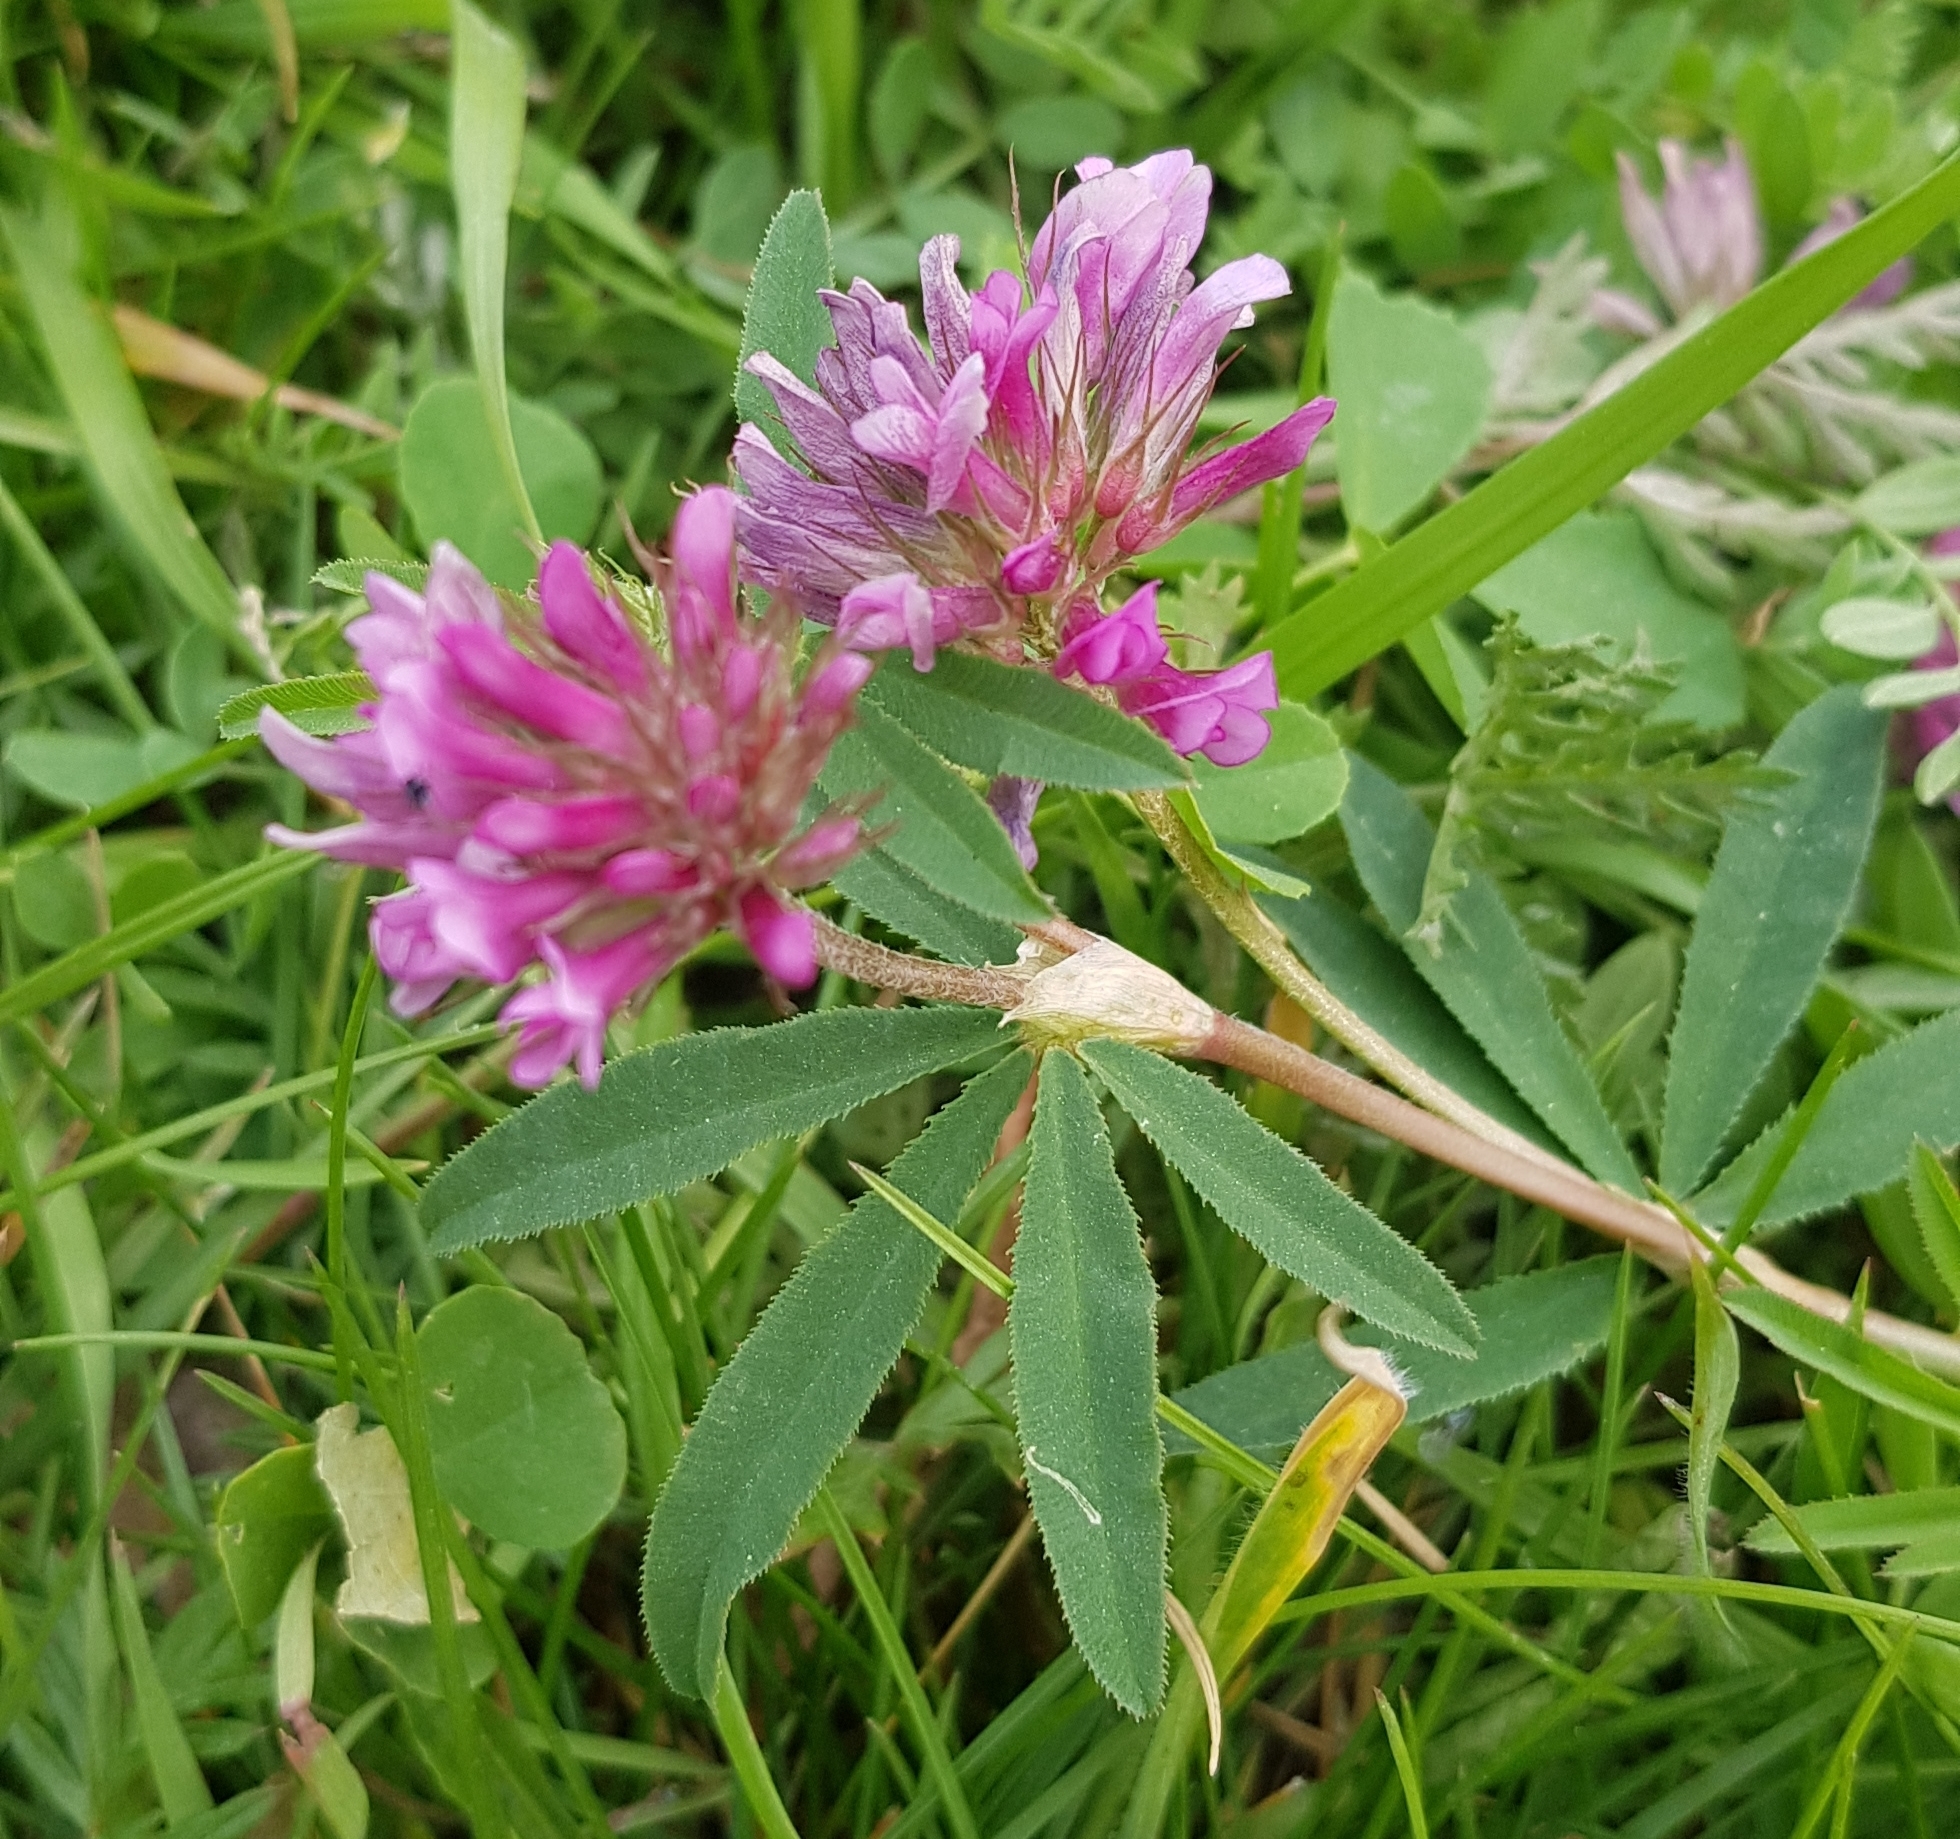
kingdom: Plantae
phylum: Tracheophyta
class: Magnoliopsida
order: Fabales
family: Fabaceae
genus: Trifolium
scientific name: Trifolium lupinaster
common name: Lupine clover
